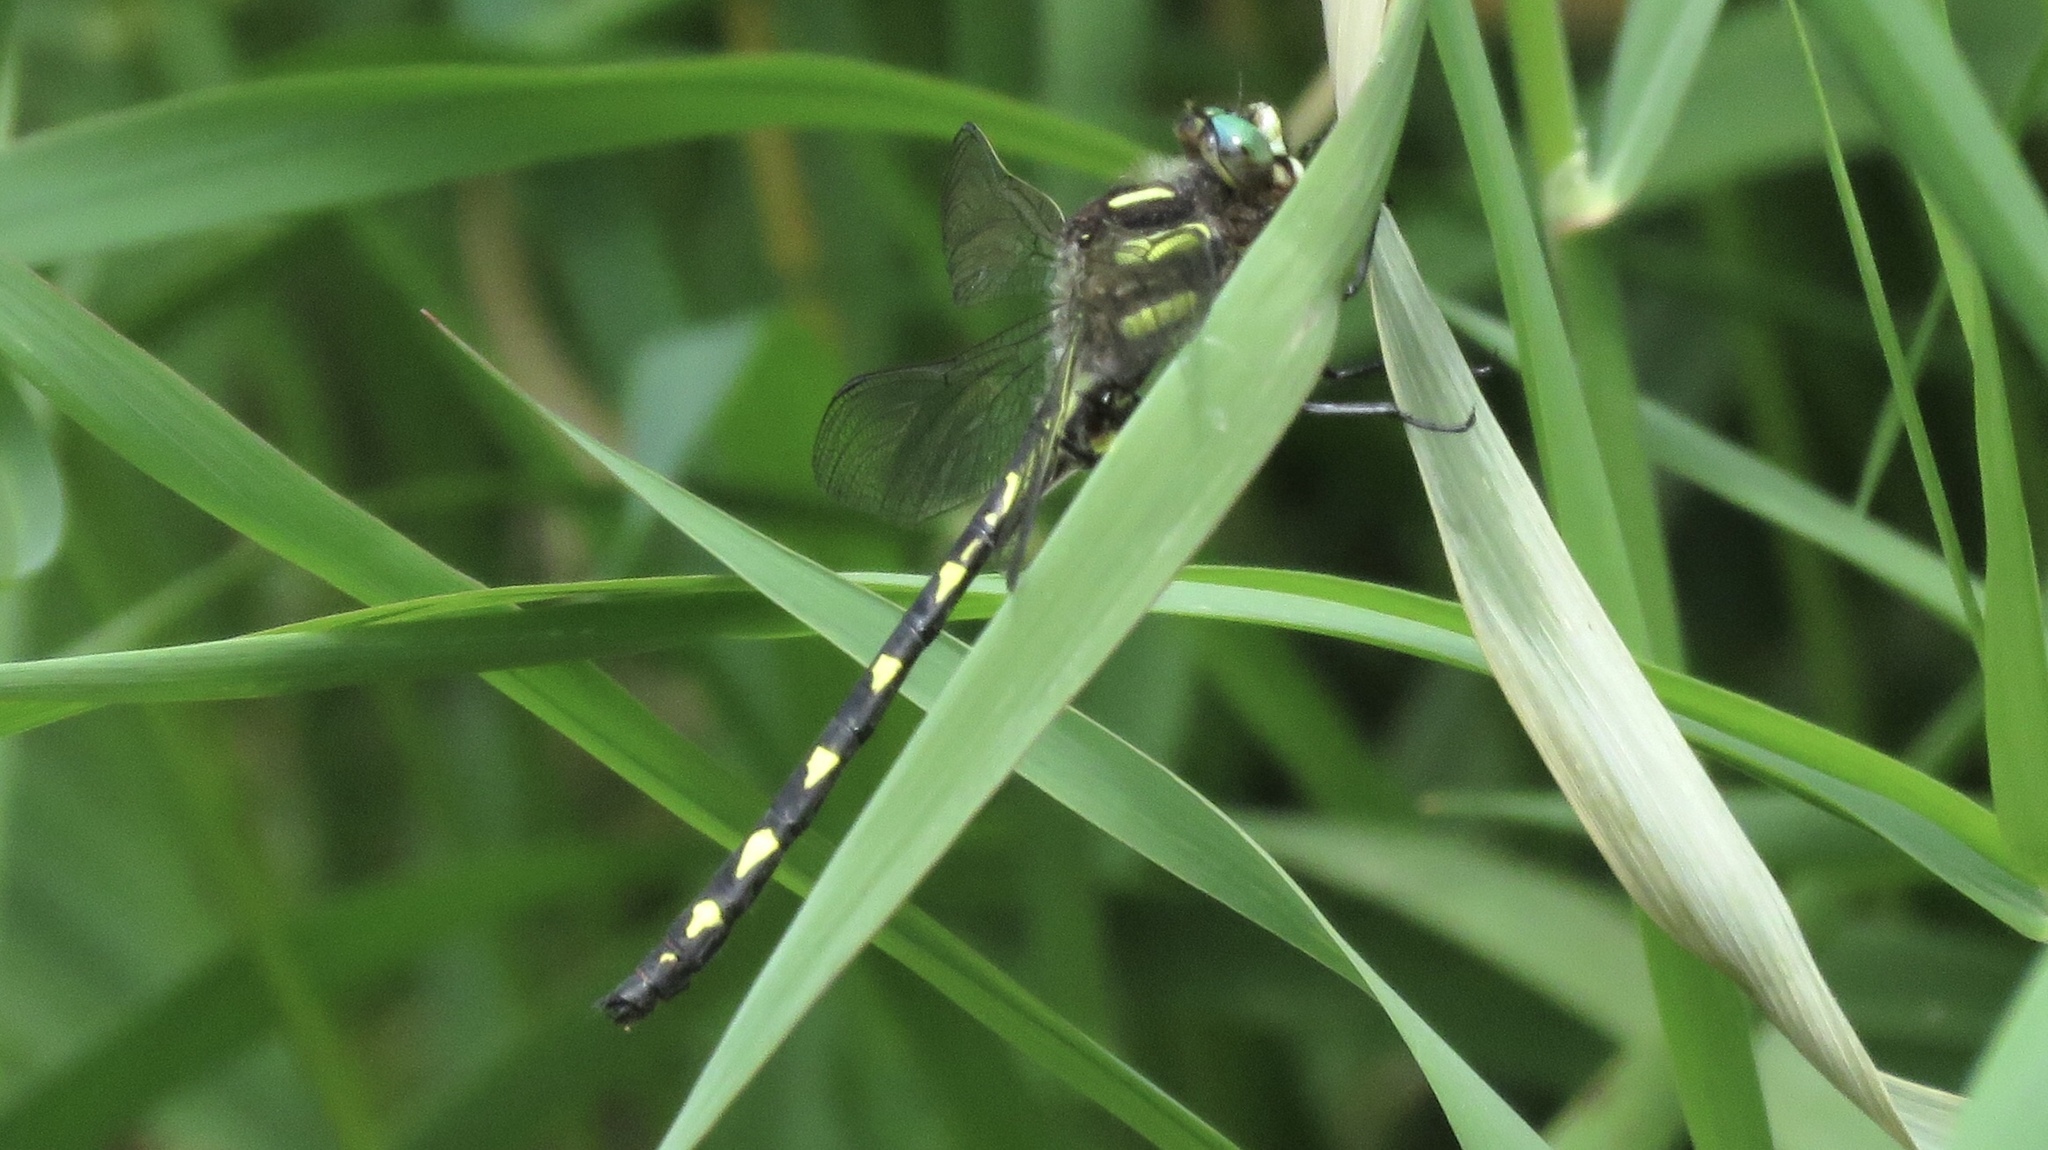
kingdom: Animalia
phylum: Arthropoda
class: Insecta
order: Odonata
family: Cordulegastridae
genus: Cordulegaster
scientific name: Cordulegaster diastatops
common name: Delta-spotted spiketail
